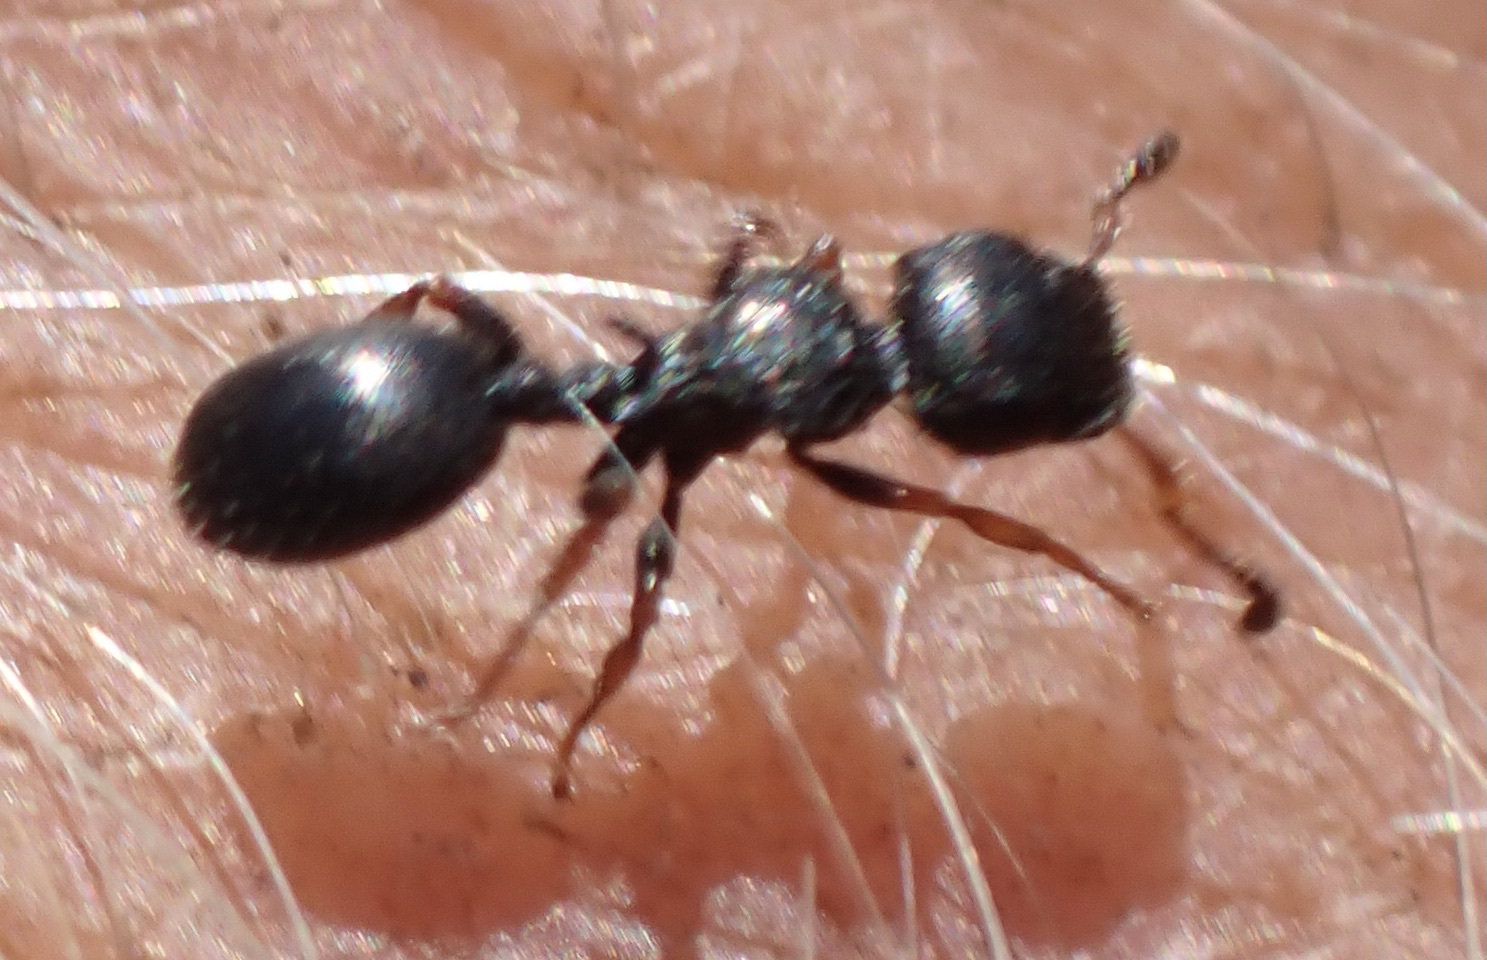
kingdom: Animalia
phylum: Arthropoda
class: Insecta
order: Hymenoptera
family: Formicidae
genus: Cataulacus
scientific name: Cataulacus intrudens
